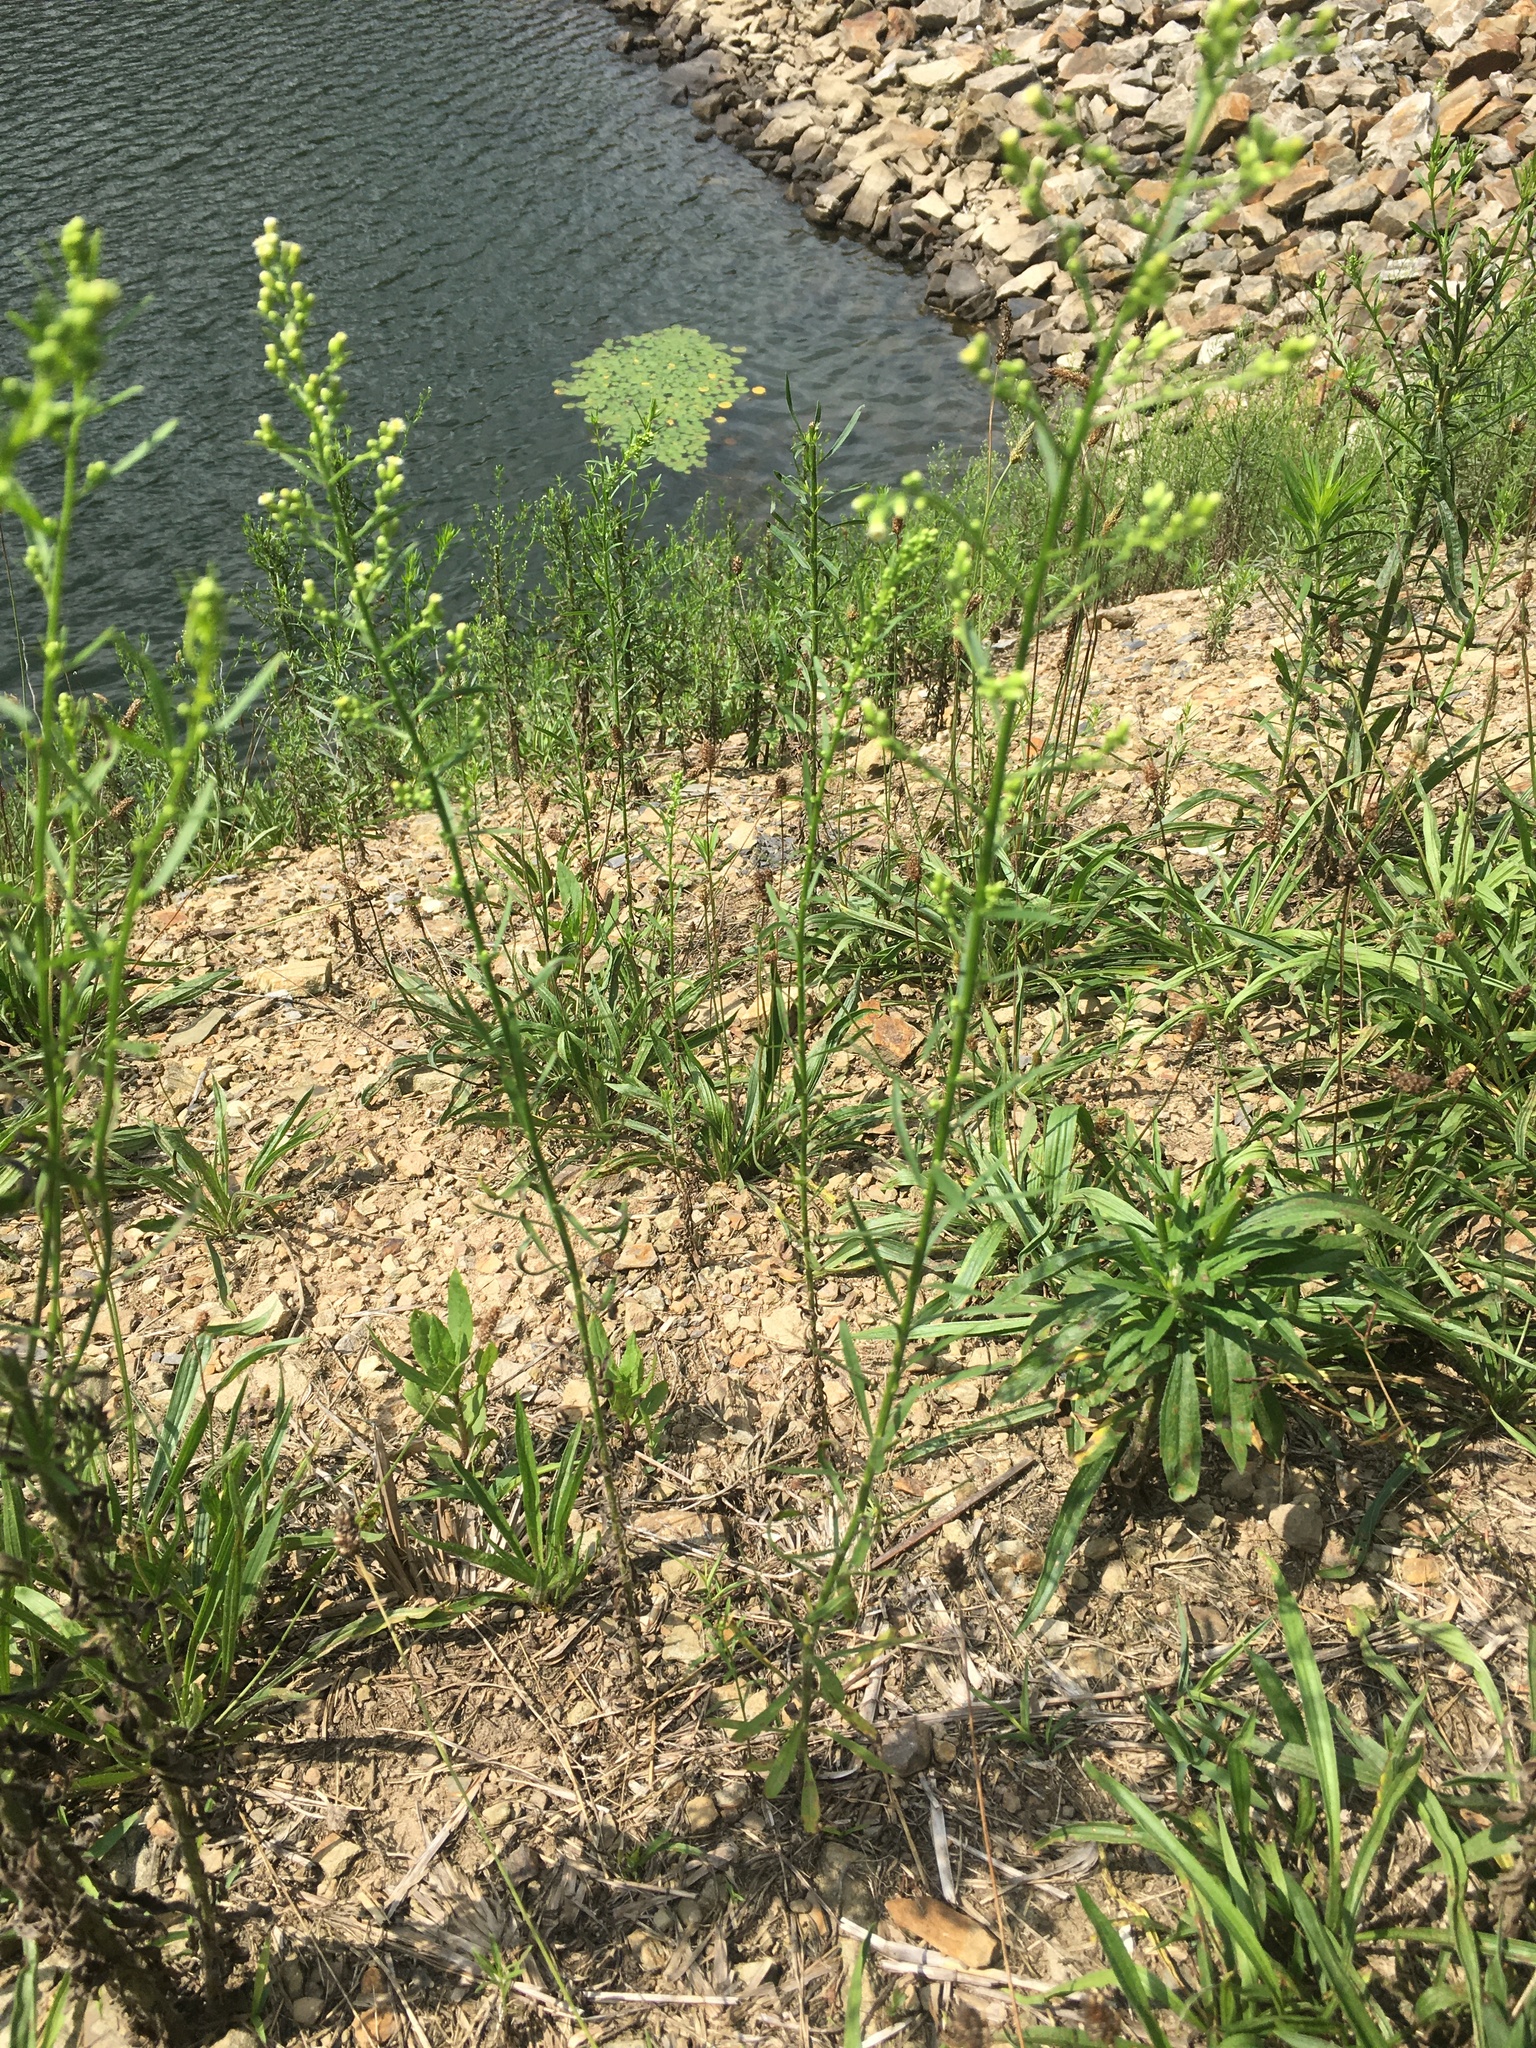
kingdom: Plantae
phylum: Tracheophyta
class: Magnoliopsida
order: Asterales
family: Asteraceae
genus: Erigeron
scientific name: Erigeron canadensis
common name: Canadian fleabane
